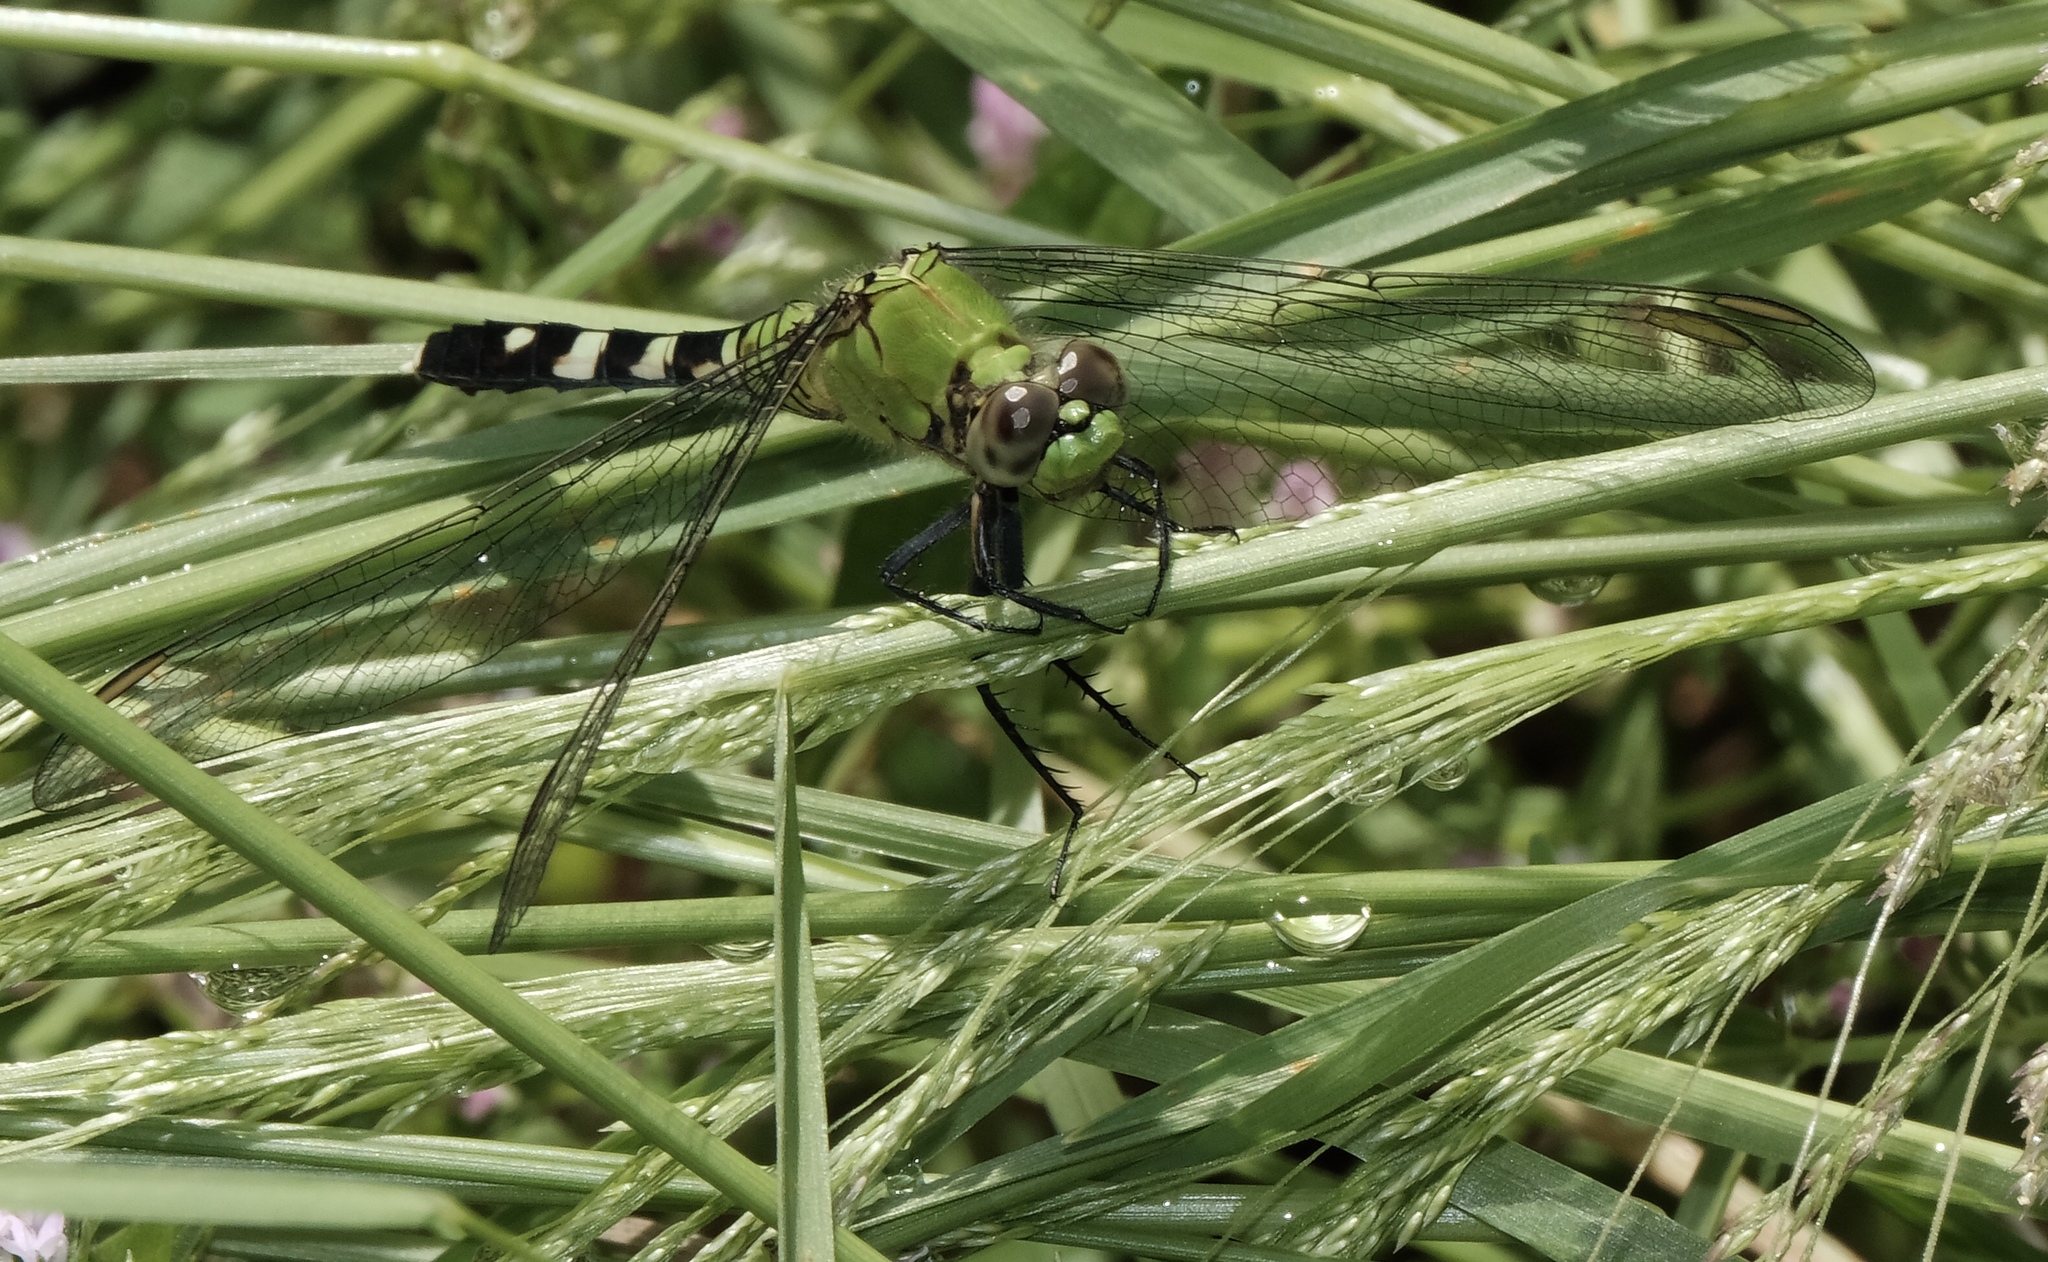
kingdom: Animalia
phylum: Arthropoda
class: Insecta
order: Odonata
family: Libellulidae
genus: Erythemis
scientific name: Erythemis simplicicollis
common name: Eastern pondhawk
